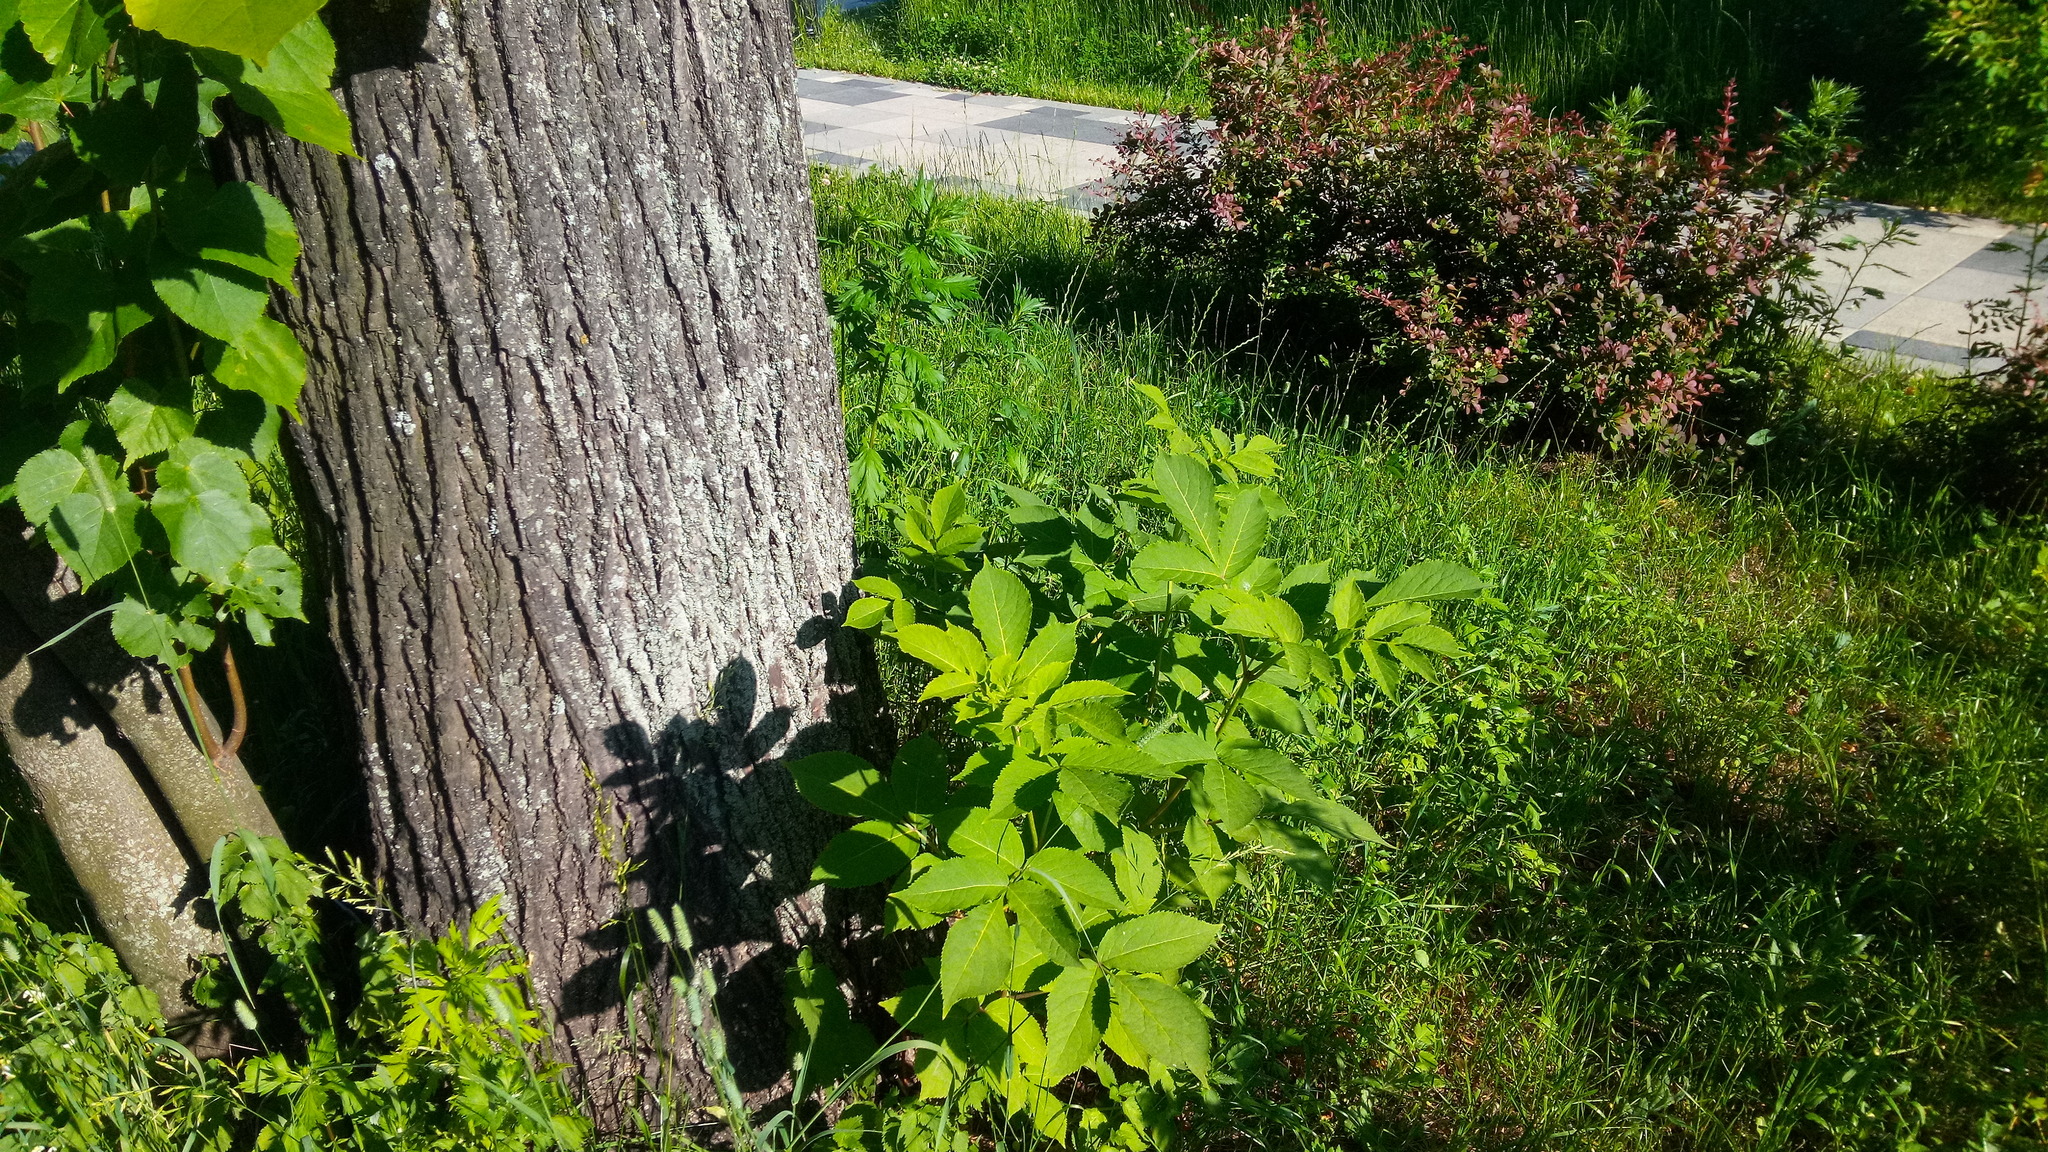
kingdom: Plantae
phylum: Tracheophyta
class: Magnoliopsida
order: Dipsacales
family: Viburnaceae
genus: Sambucus
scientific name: Sambucus racemosa
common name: Red-berried elder
